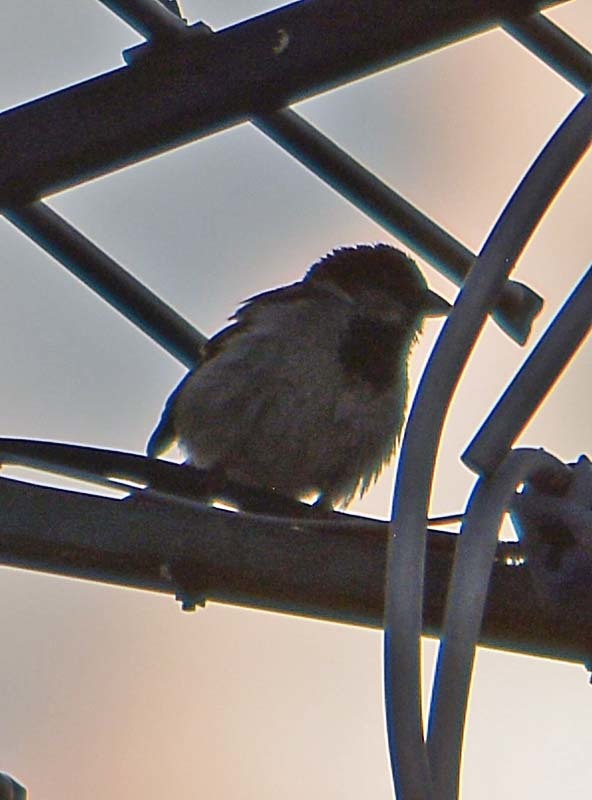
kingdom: Animalia
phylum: Chordata
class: Aves
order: Passeriformes
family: Passeridae
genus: Passer
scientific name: Passer domesticus
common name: House sparrow
